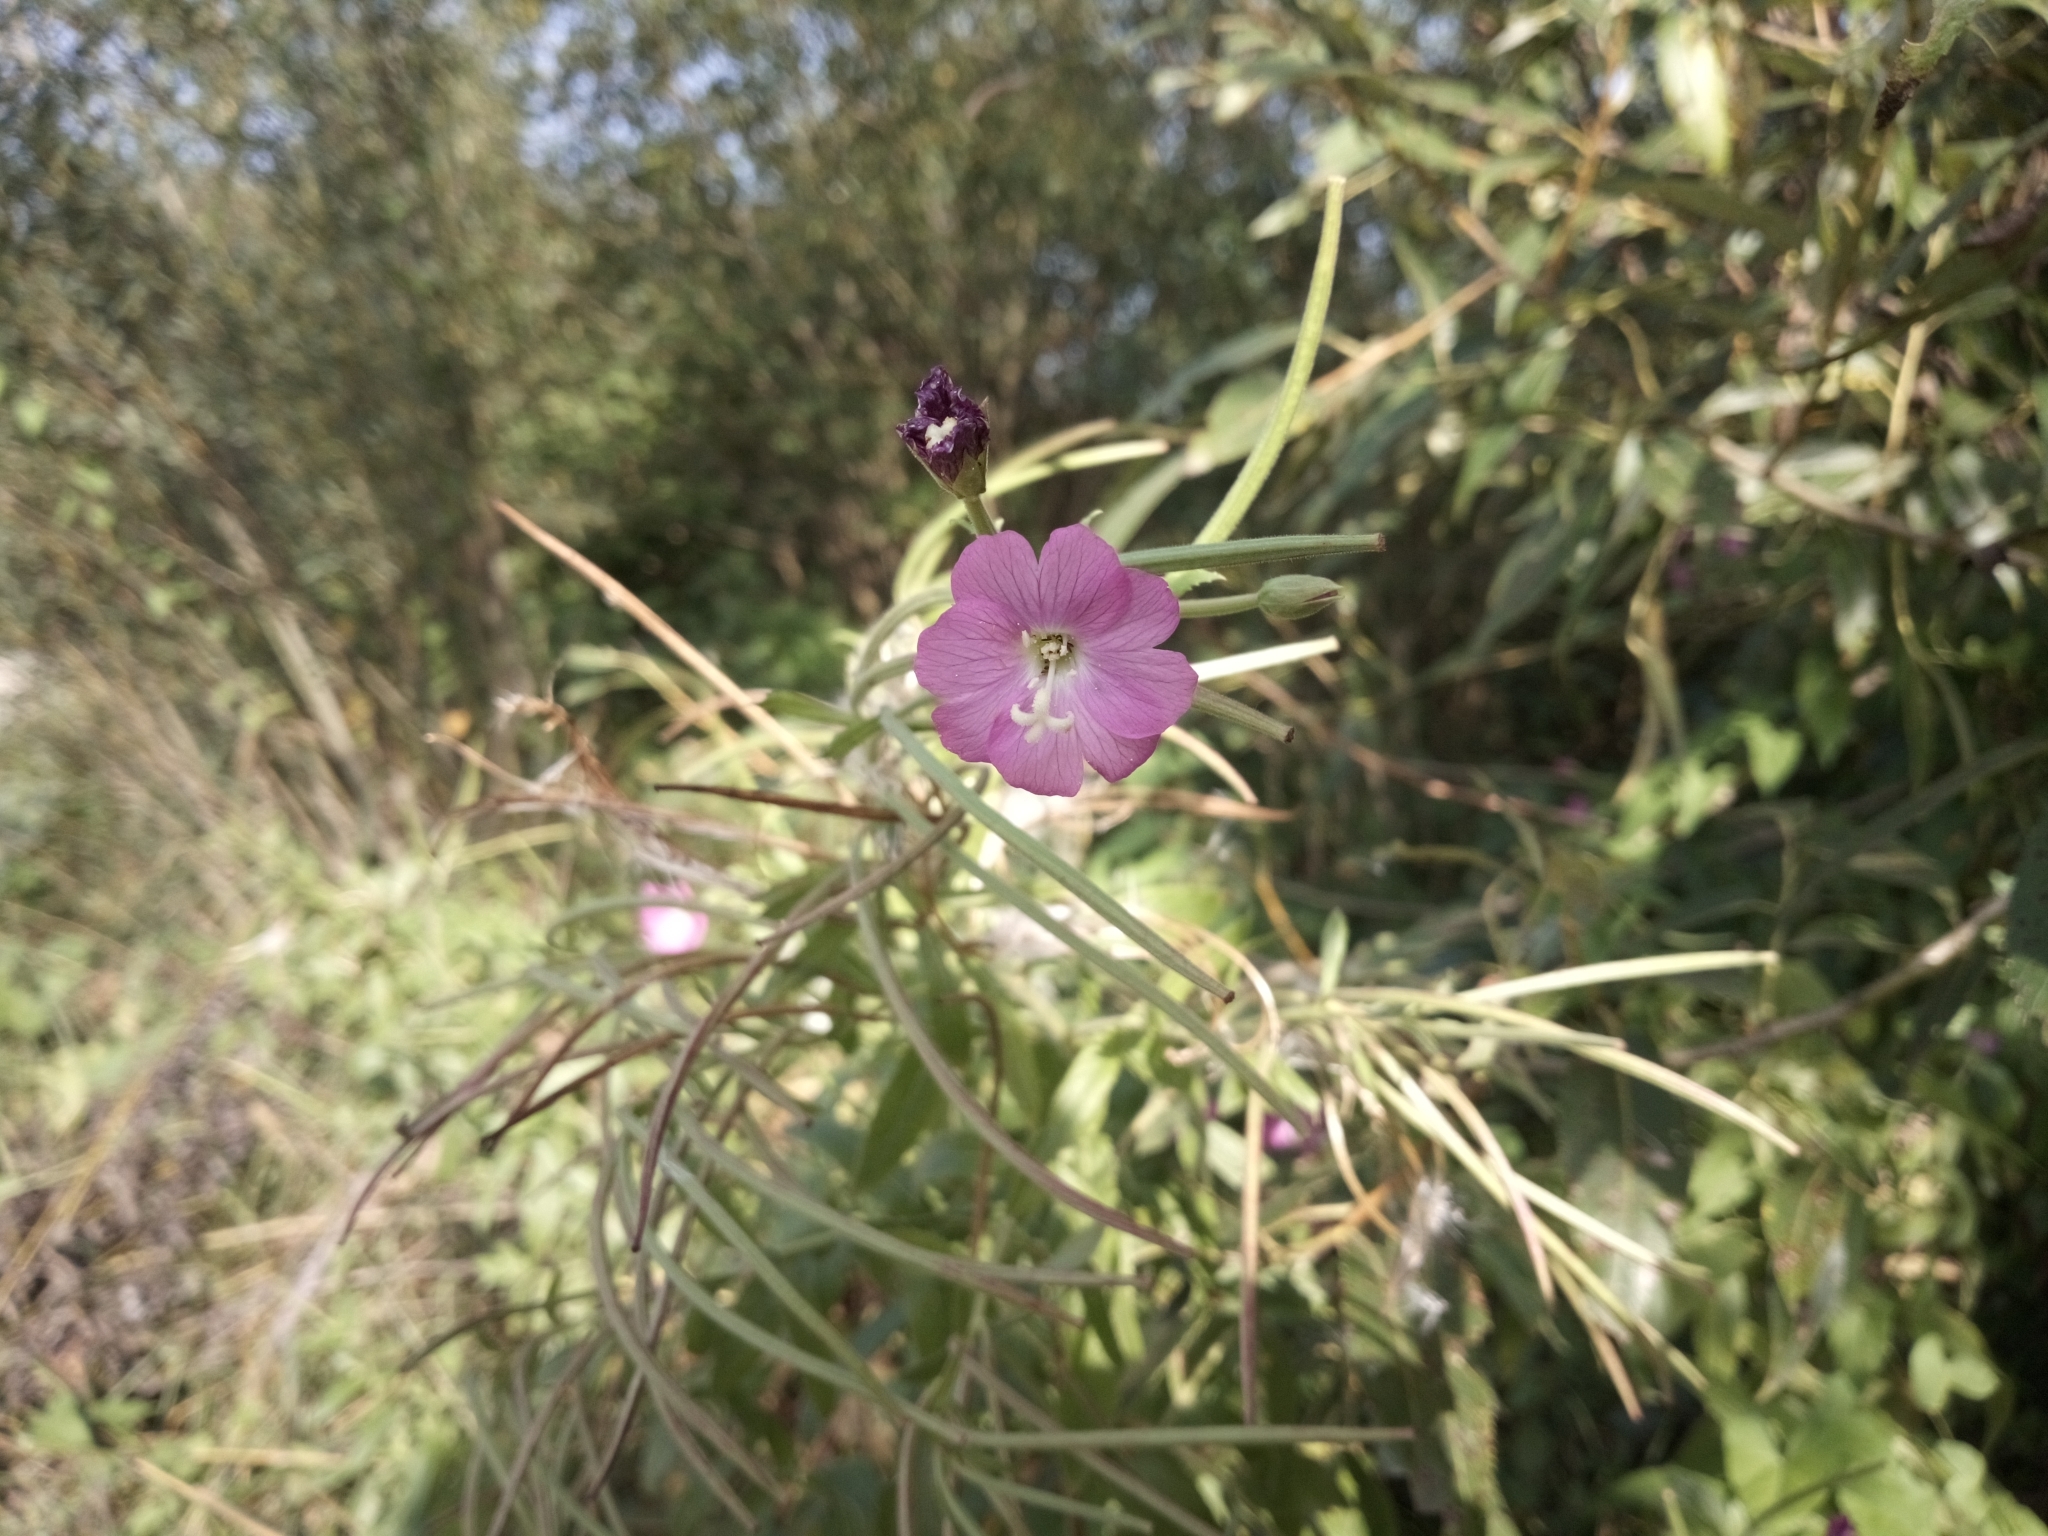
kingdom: Plantae
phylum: Tracheophyta
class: Magnoliopsida
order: Myrtales
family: Onagraceae
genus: Epilobium
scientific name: Epilobium hirsutum
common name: Great willowherb
